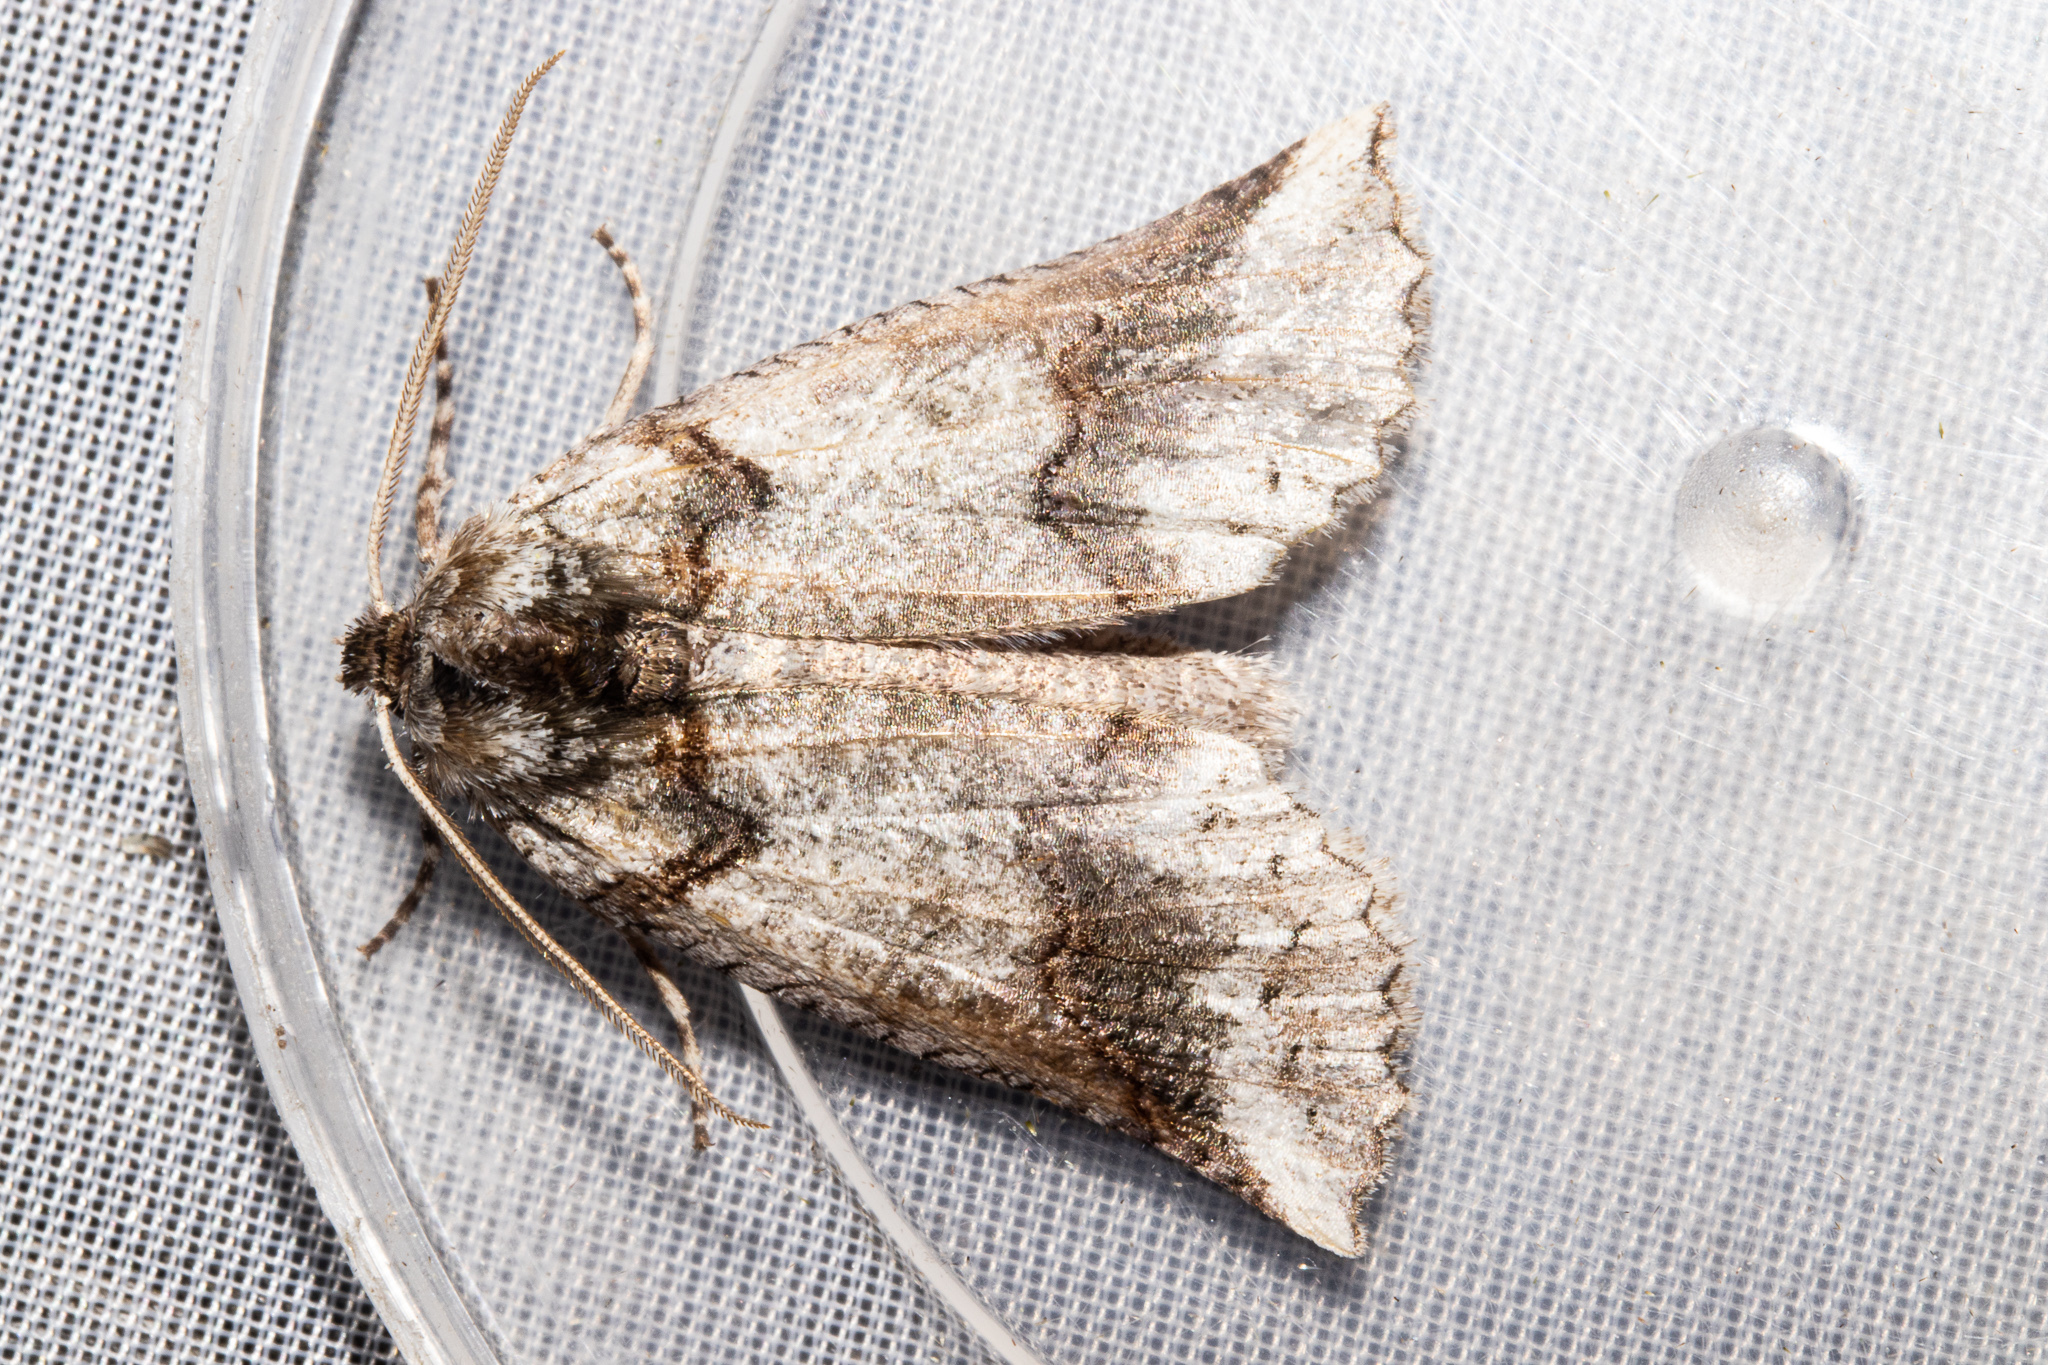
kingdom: Animalia
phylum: Arthropoda
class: Insecta
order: Lepidoptera
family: Geometridae
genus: Declana
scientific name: Declana
